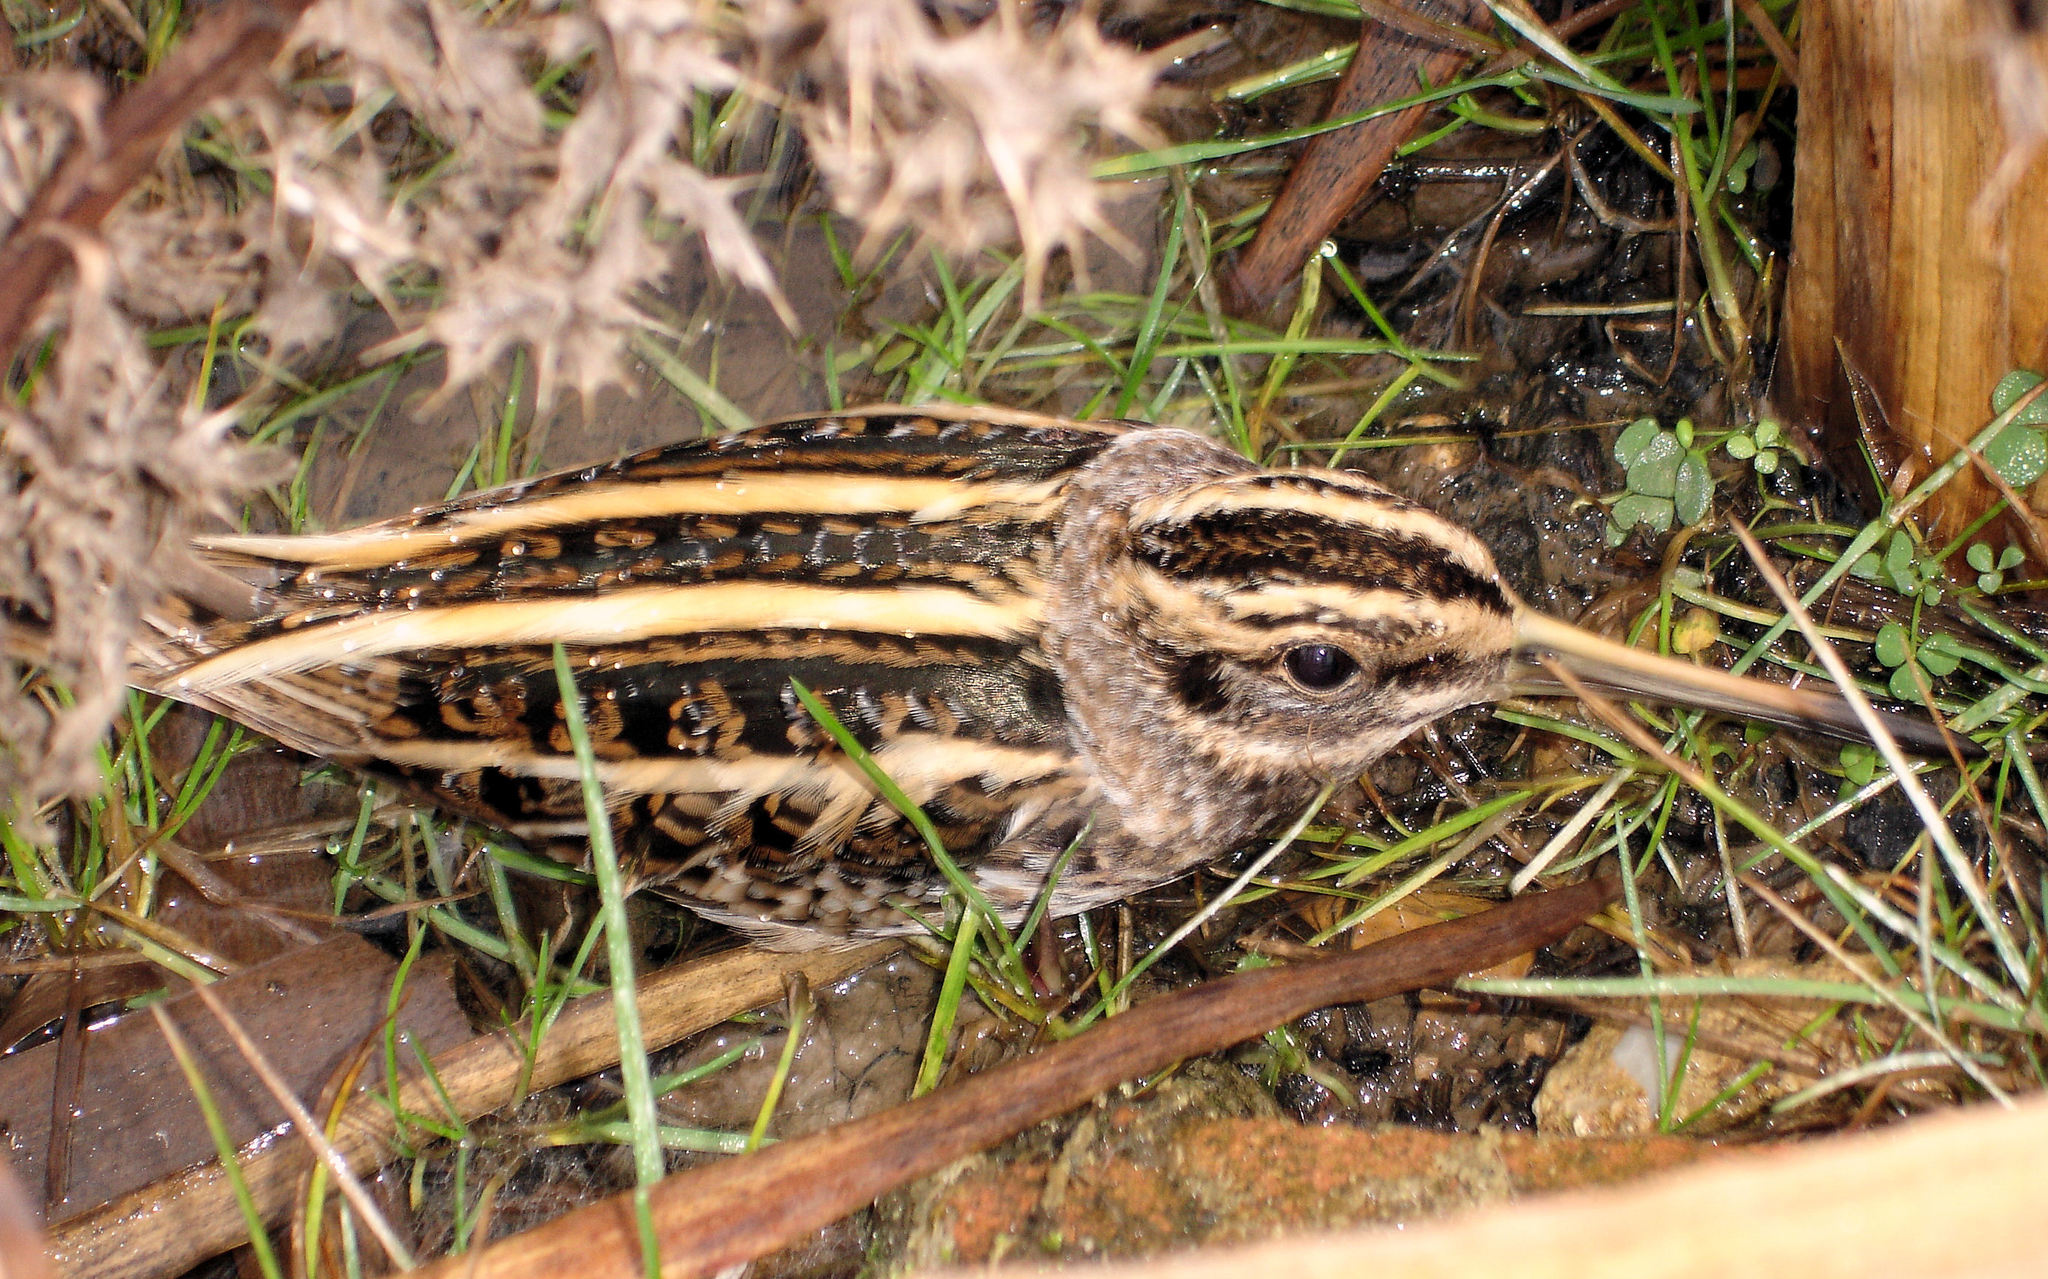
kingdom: Animalia
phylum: Chordata
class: Aves
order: Charadriiformes
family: Scolopacidae
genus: Lymnocryptes
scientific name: Lymnocryptes minimus
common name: Jack snipe
